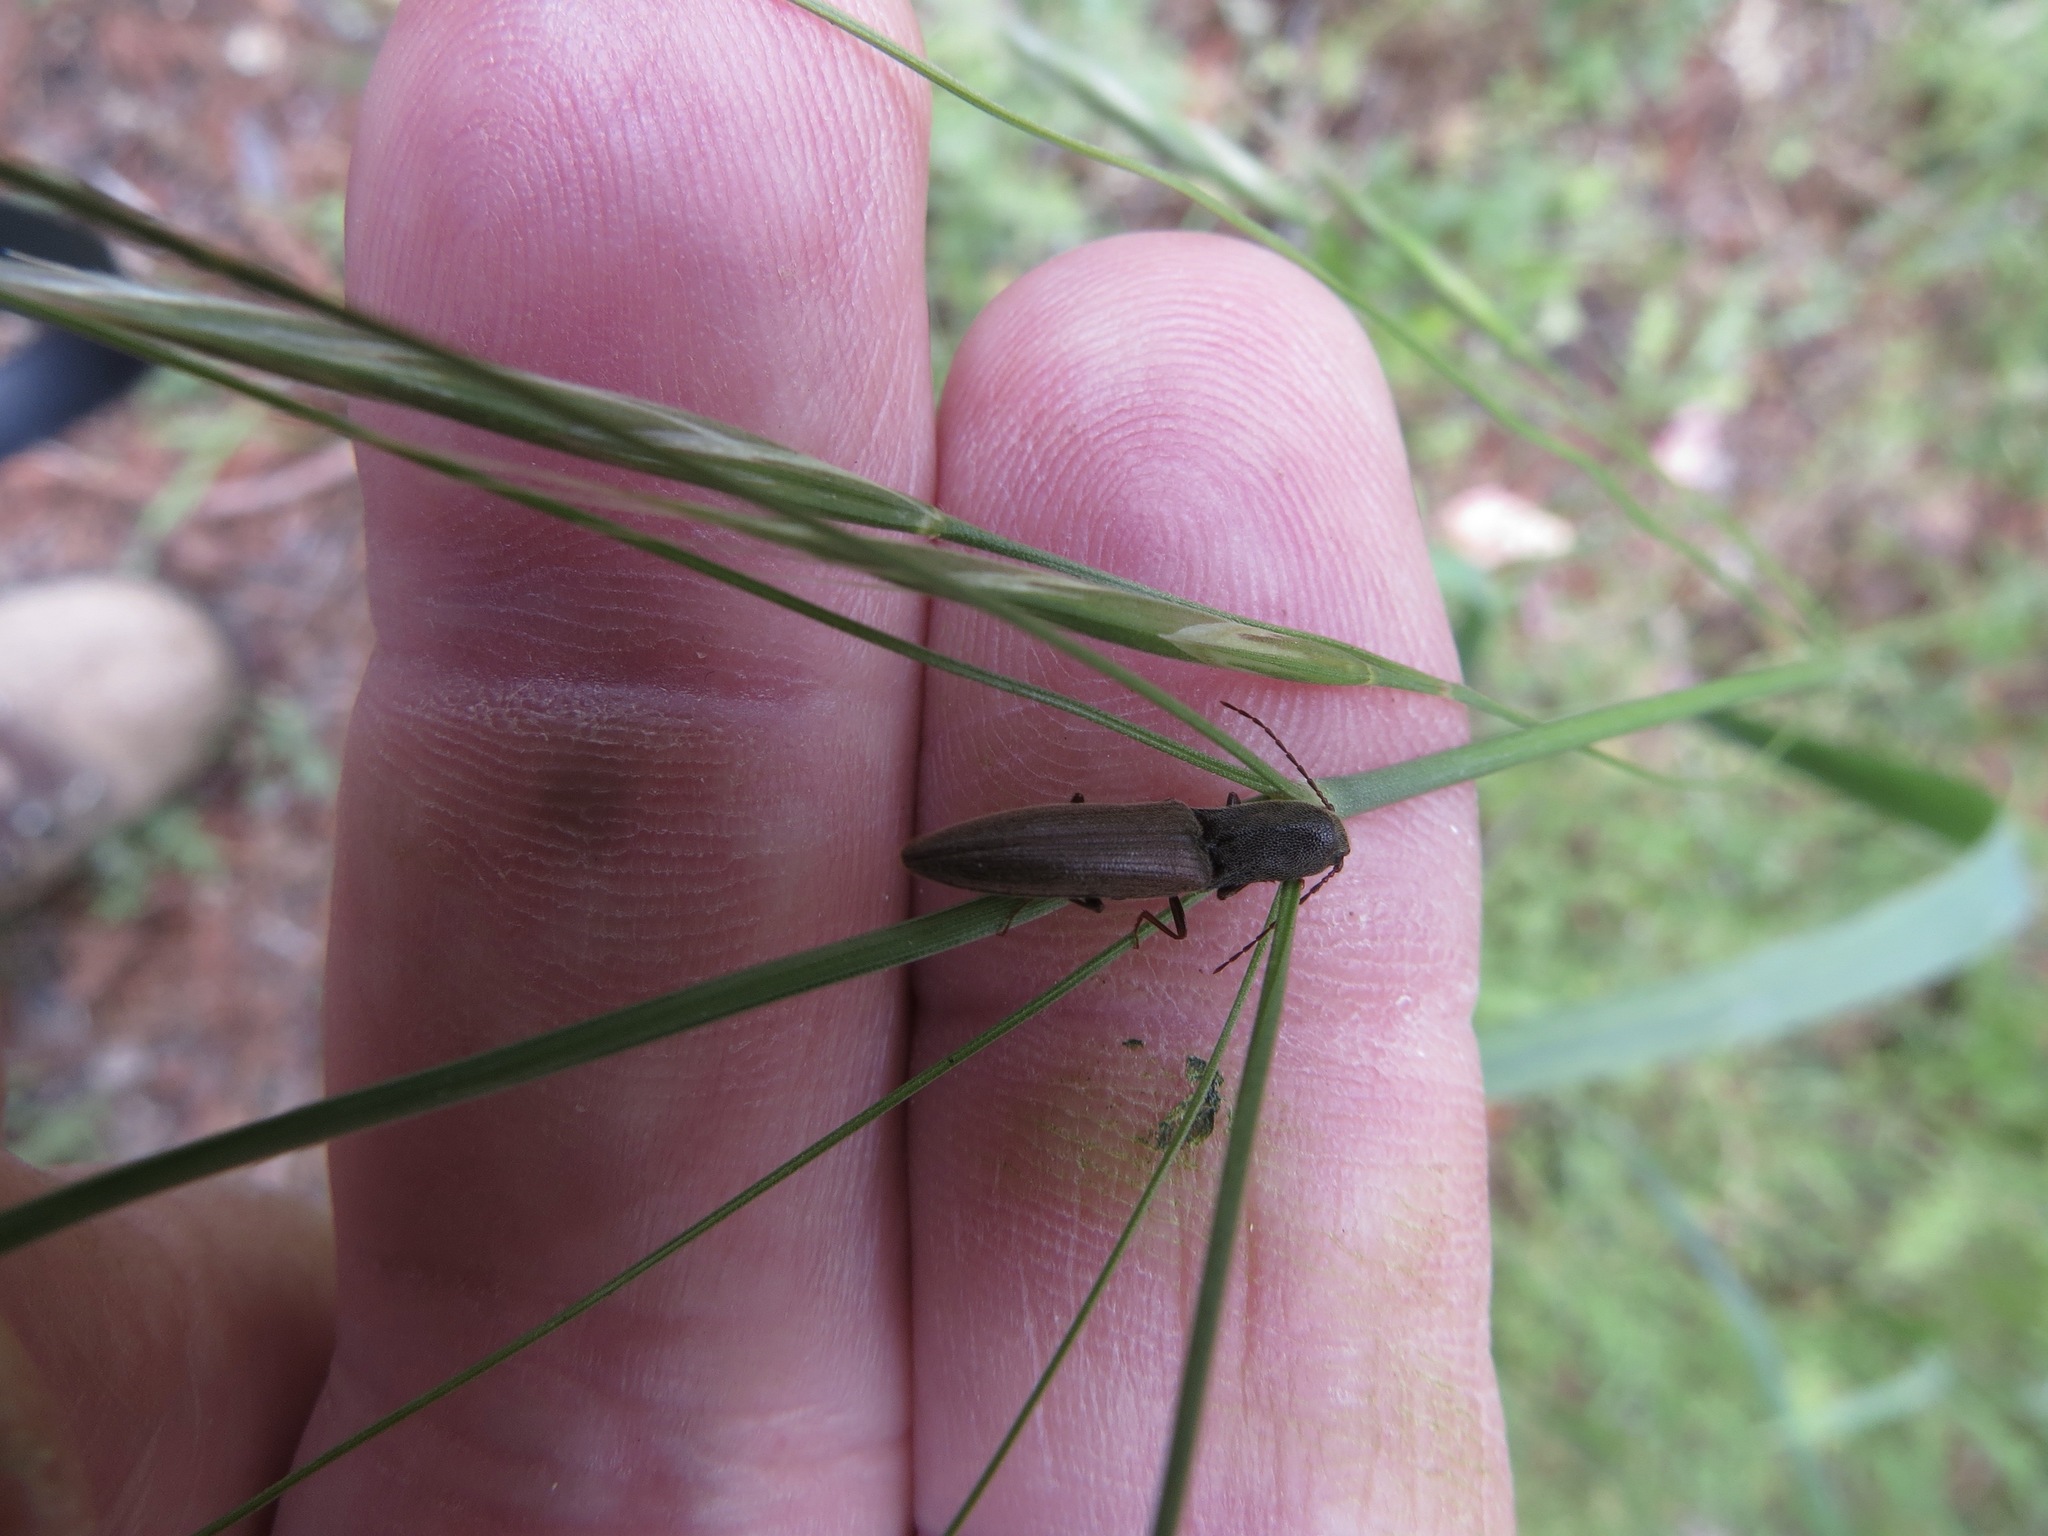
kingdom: Animalia
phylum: Arthropoda
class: Insecta
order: Coleoptera
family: Elateridae
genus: Leptoschema
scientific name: Leptoschema
